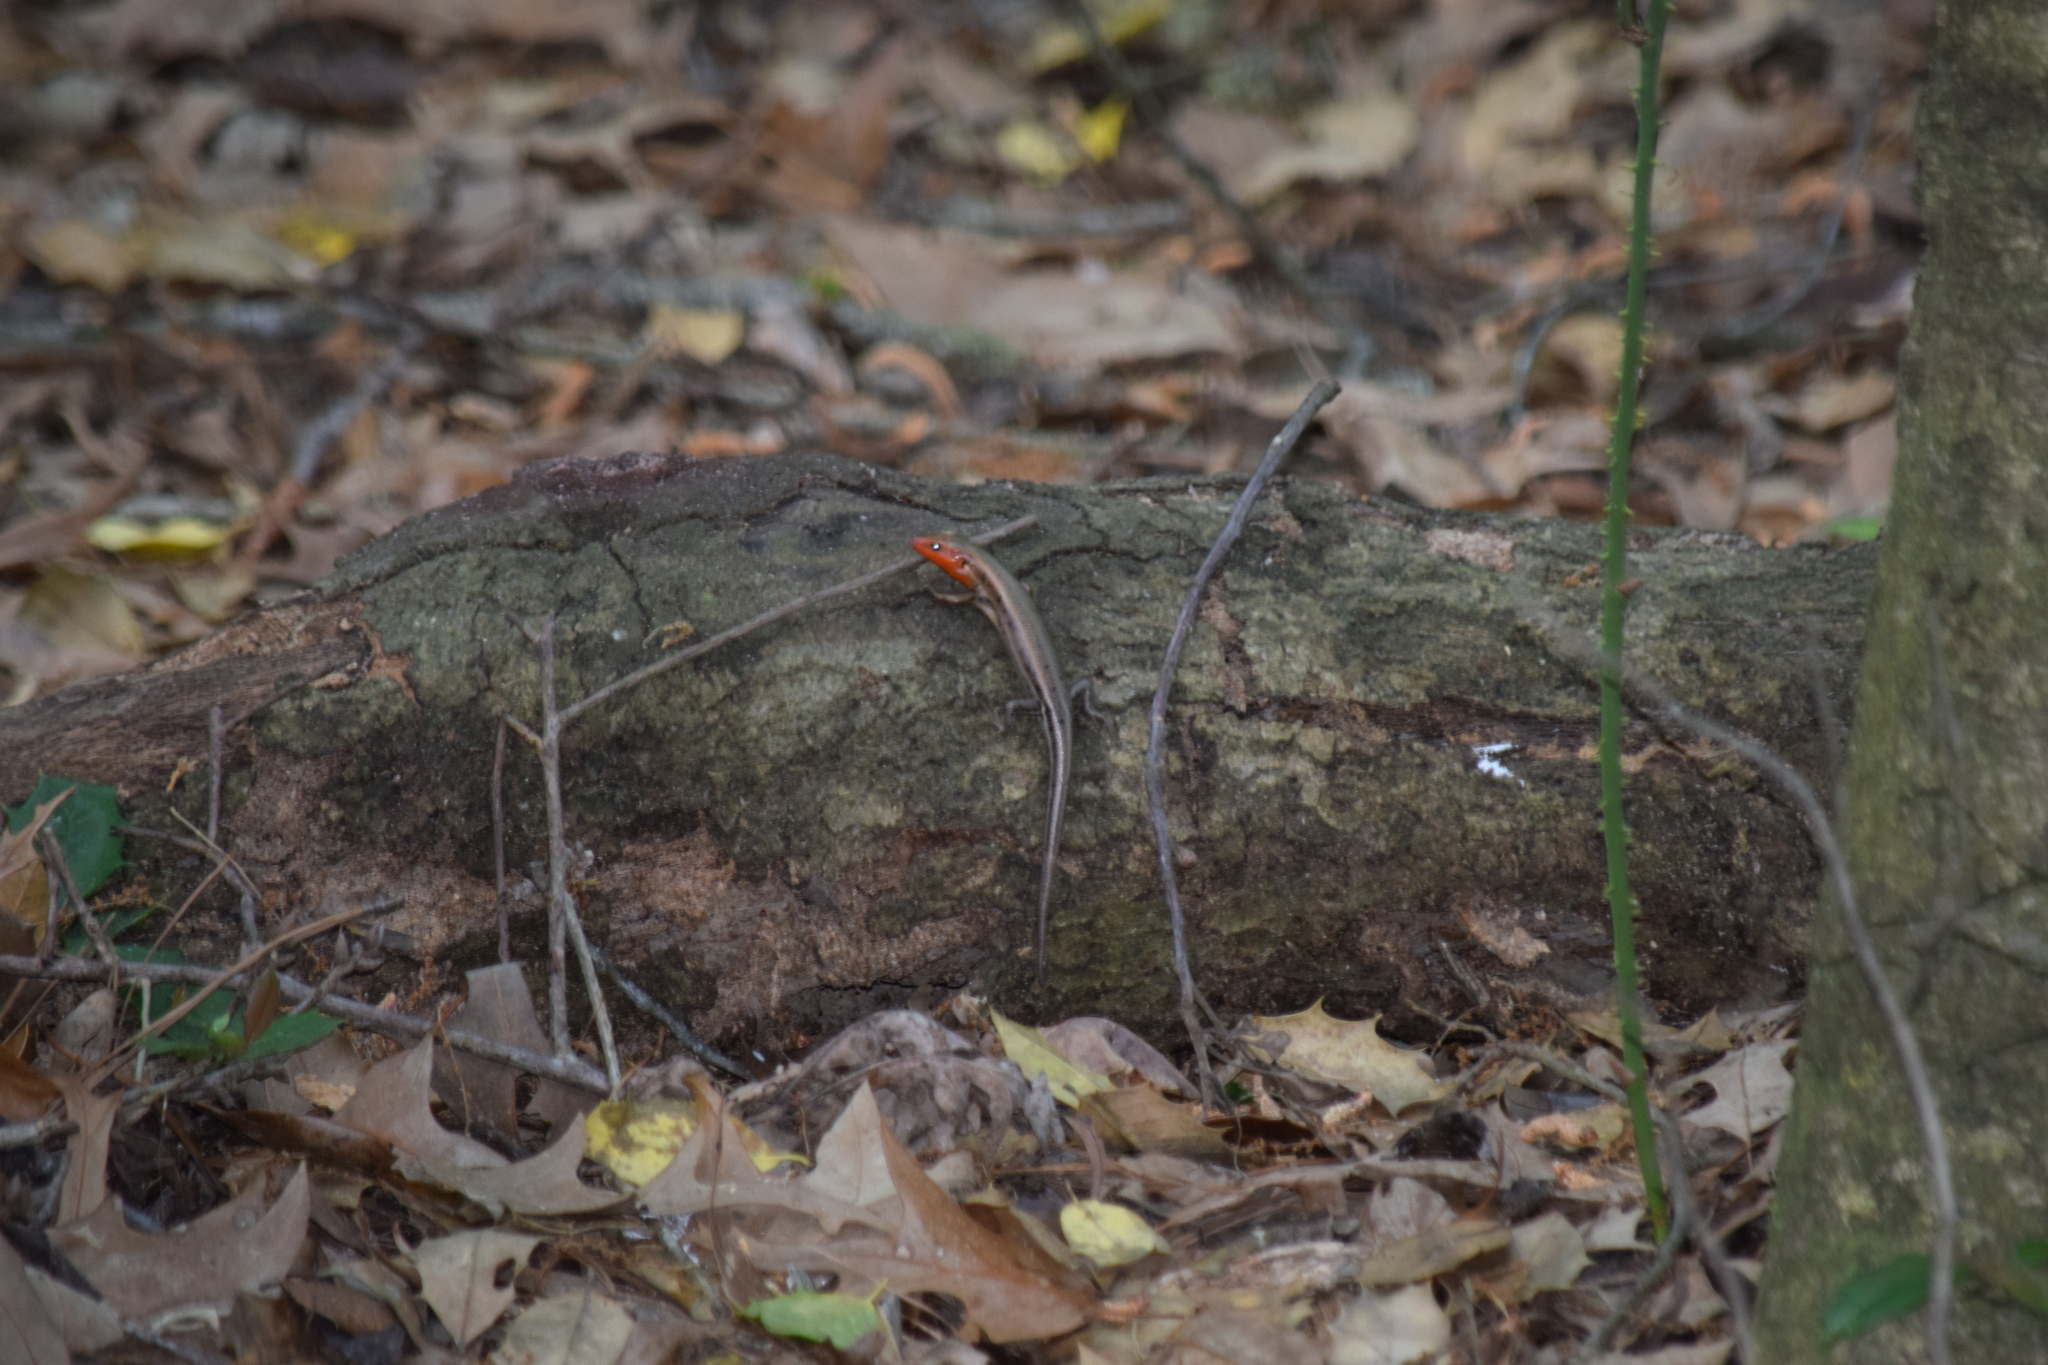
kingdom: Animalia
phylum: Chordata
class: Squamata
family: Scincidae
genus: Plestiodon
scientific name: Plestiodon fasciatus
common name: Five-lined skink
